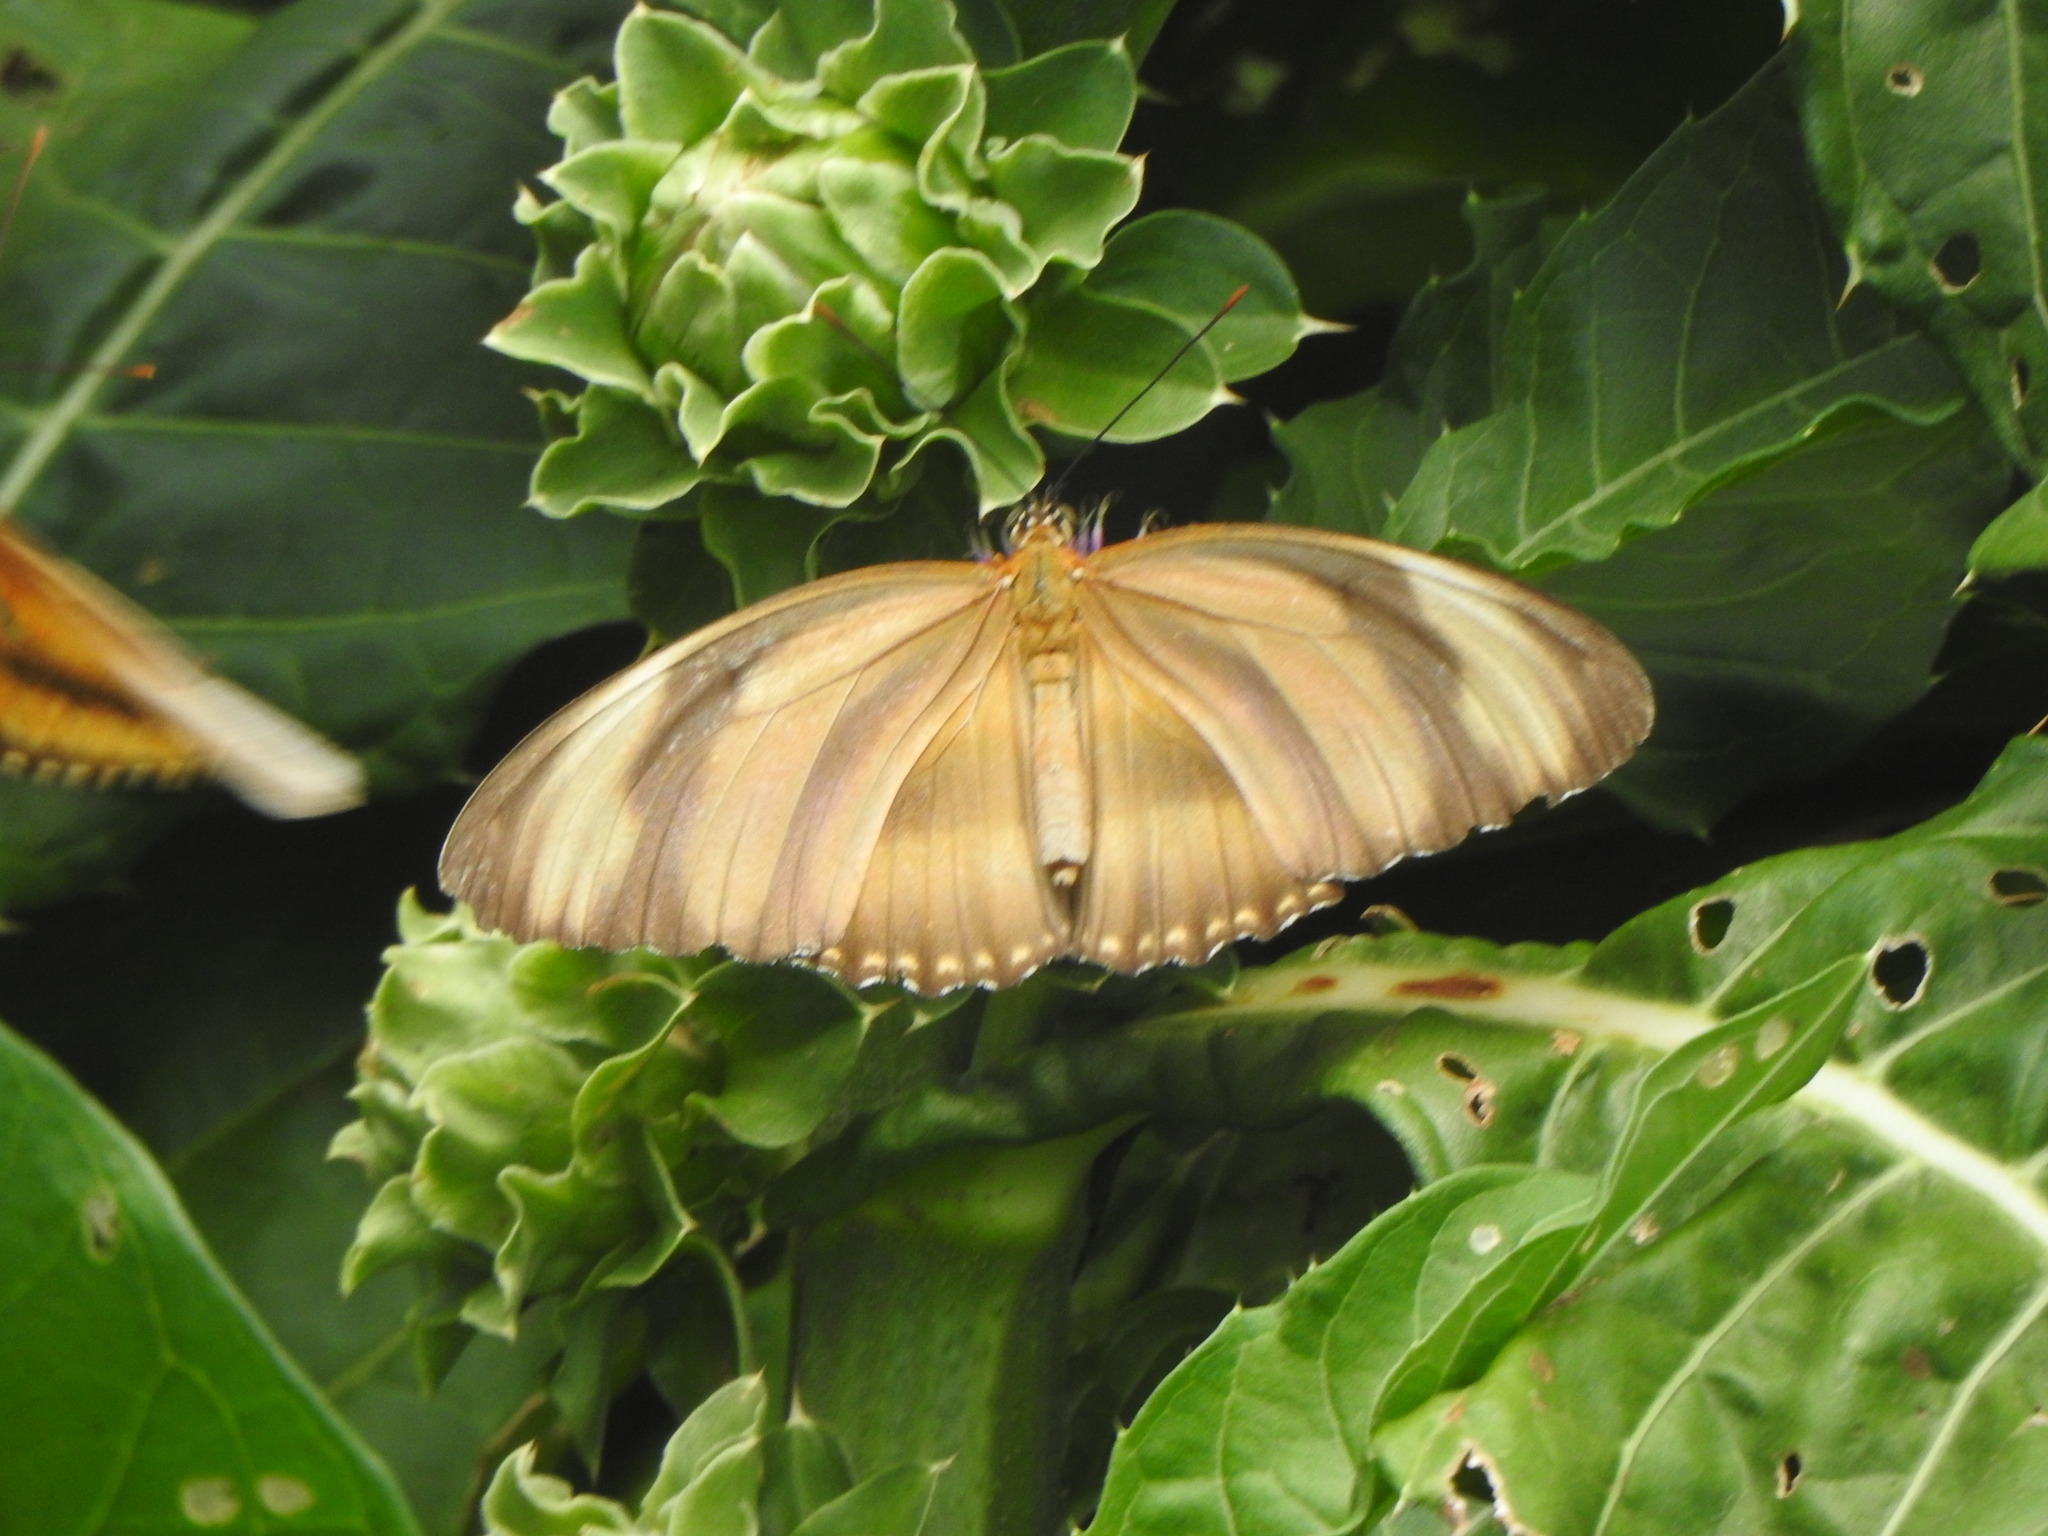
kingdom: Animalia
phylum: Arthropoda
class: Insecta
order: Lepidoptera
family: Nymphalidae
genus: Dryadula
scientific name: Dryadula phaetusa
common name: Banded orange heliconian
